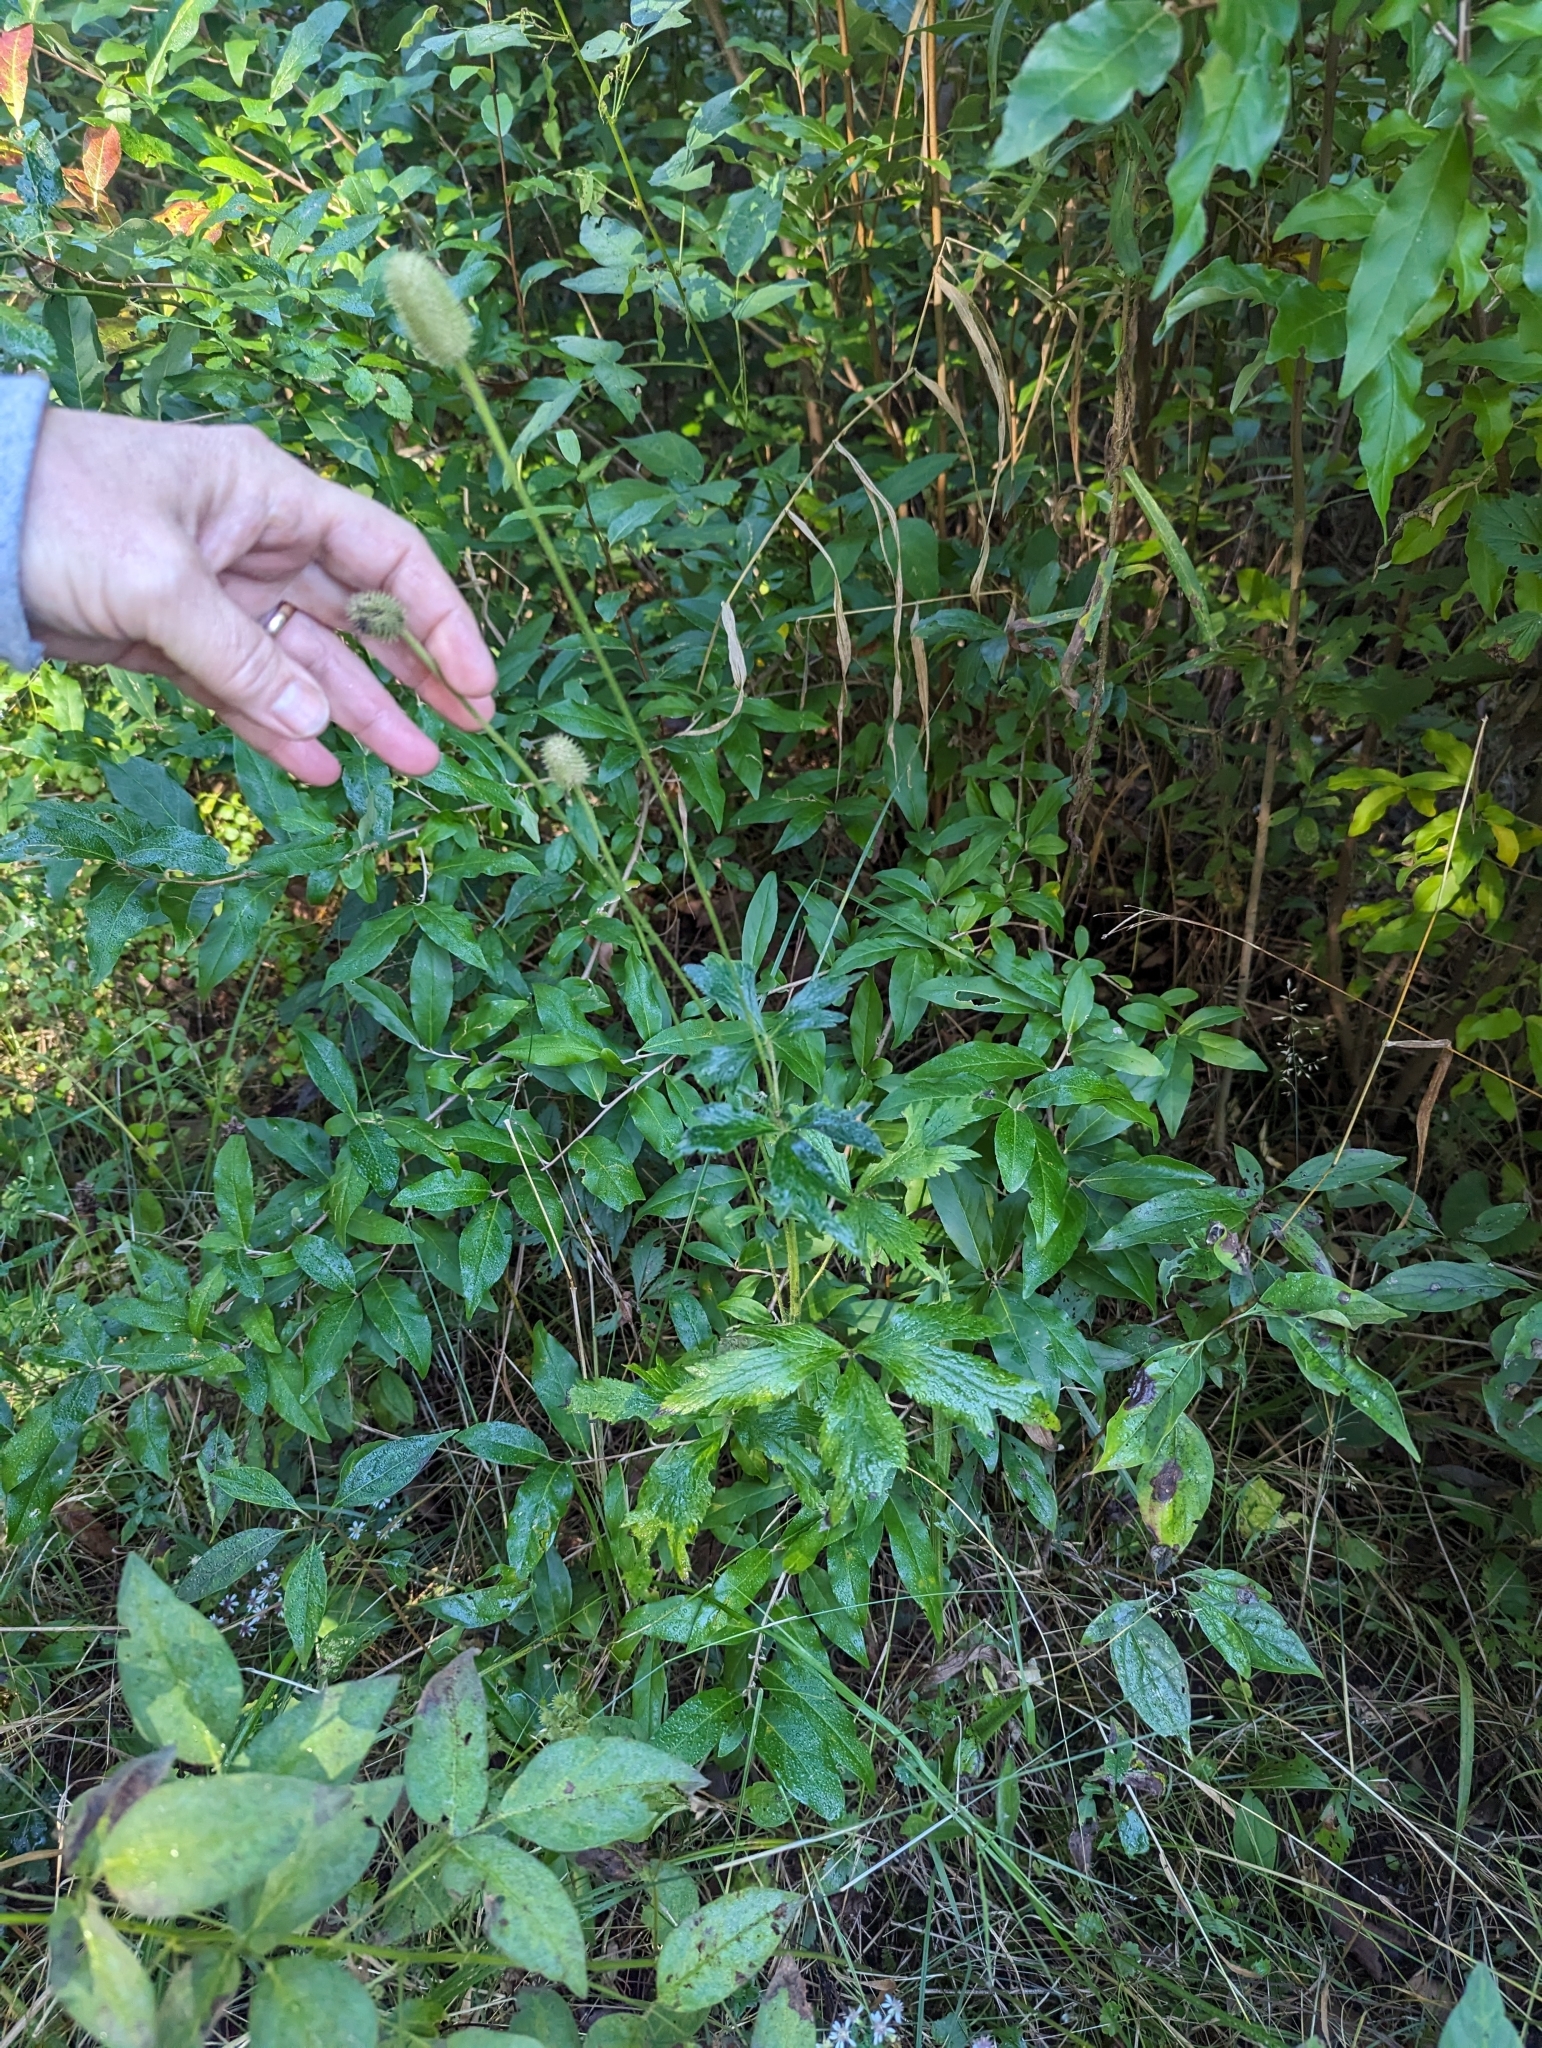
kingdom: Plantae
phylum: Tracheophyta
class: Magnoliopsida
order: Ranunculales
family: Ranunculaceae
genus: Anemone
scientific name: Anemone virginiana
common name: Tall anemone
